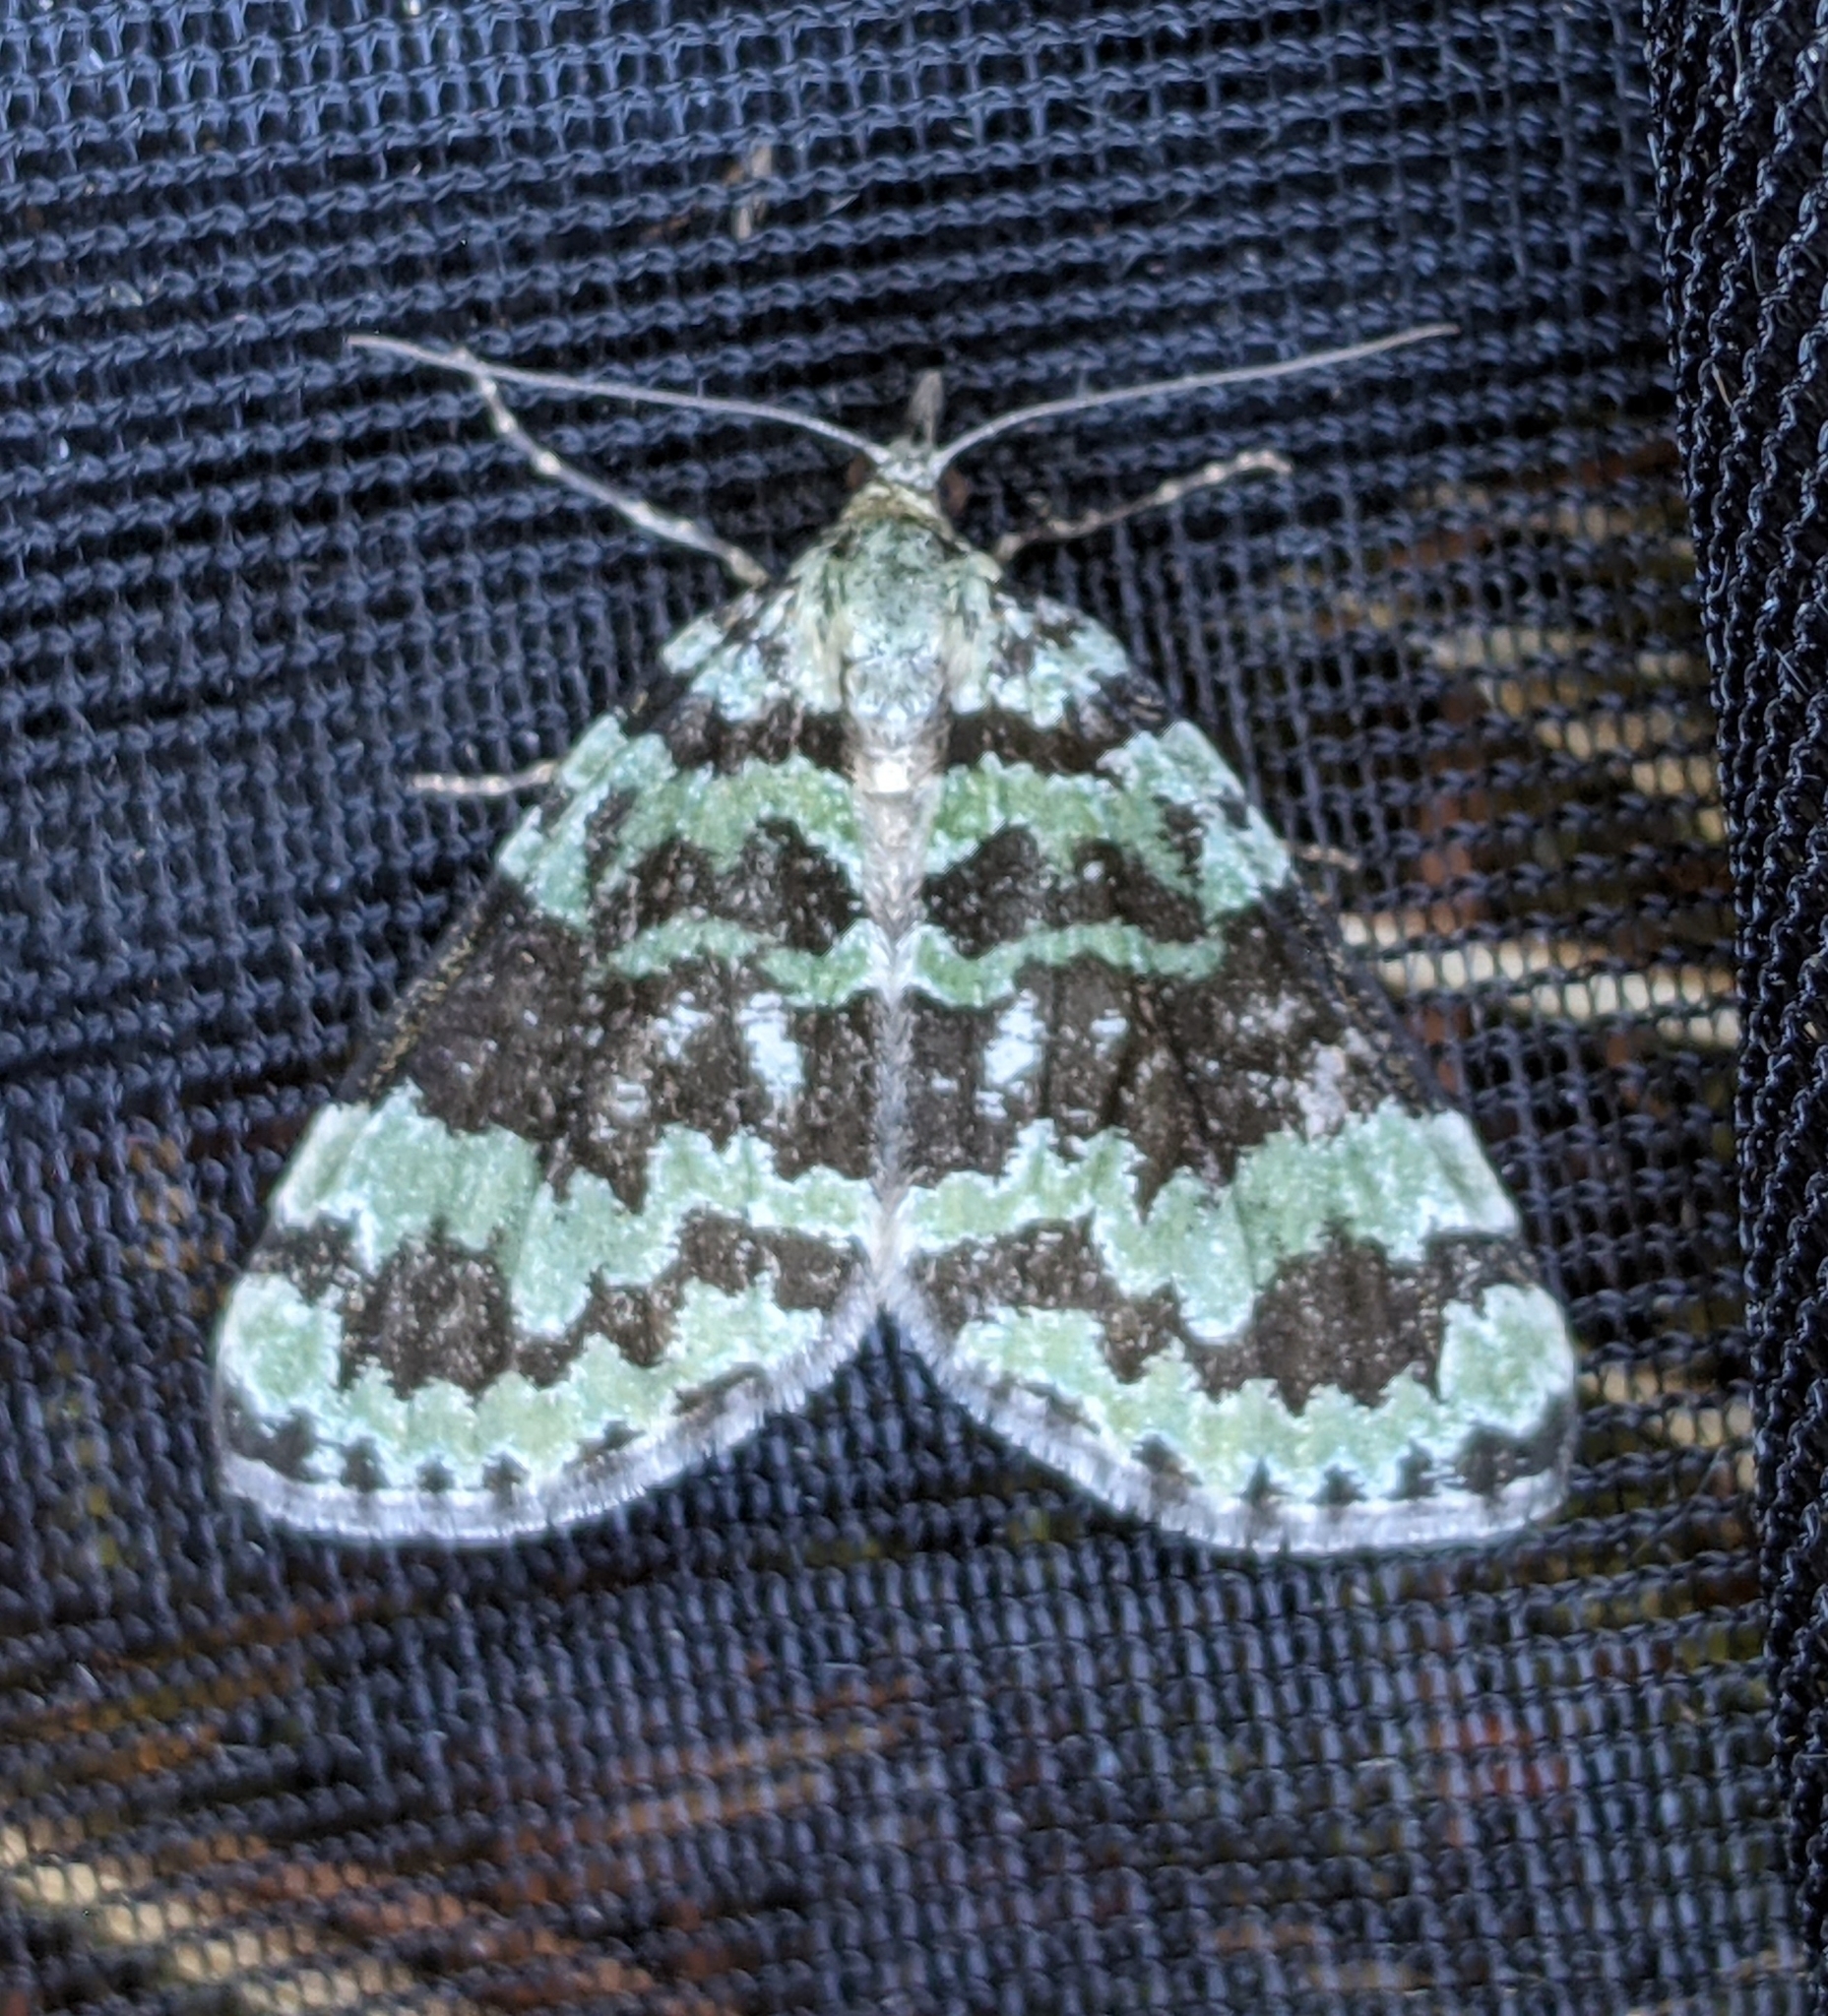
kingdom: Animalia
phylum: Arthropoda
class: Insecta
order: Lepidoptera
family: Geometridae
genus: Hydriomena
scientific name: Hydriomena speciosata
